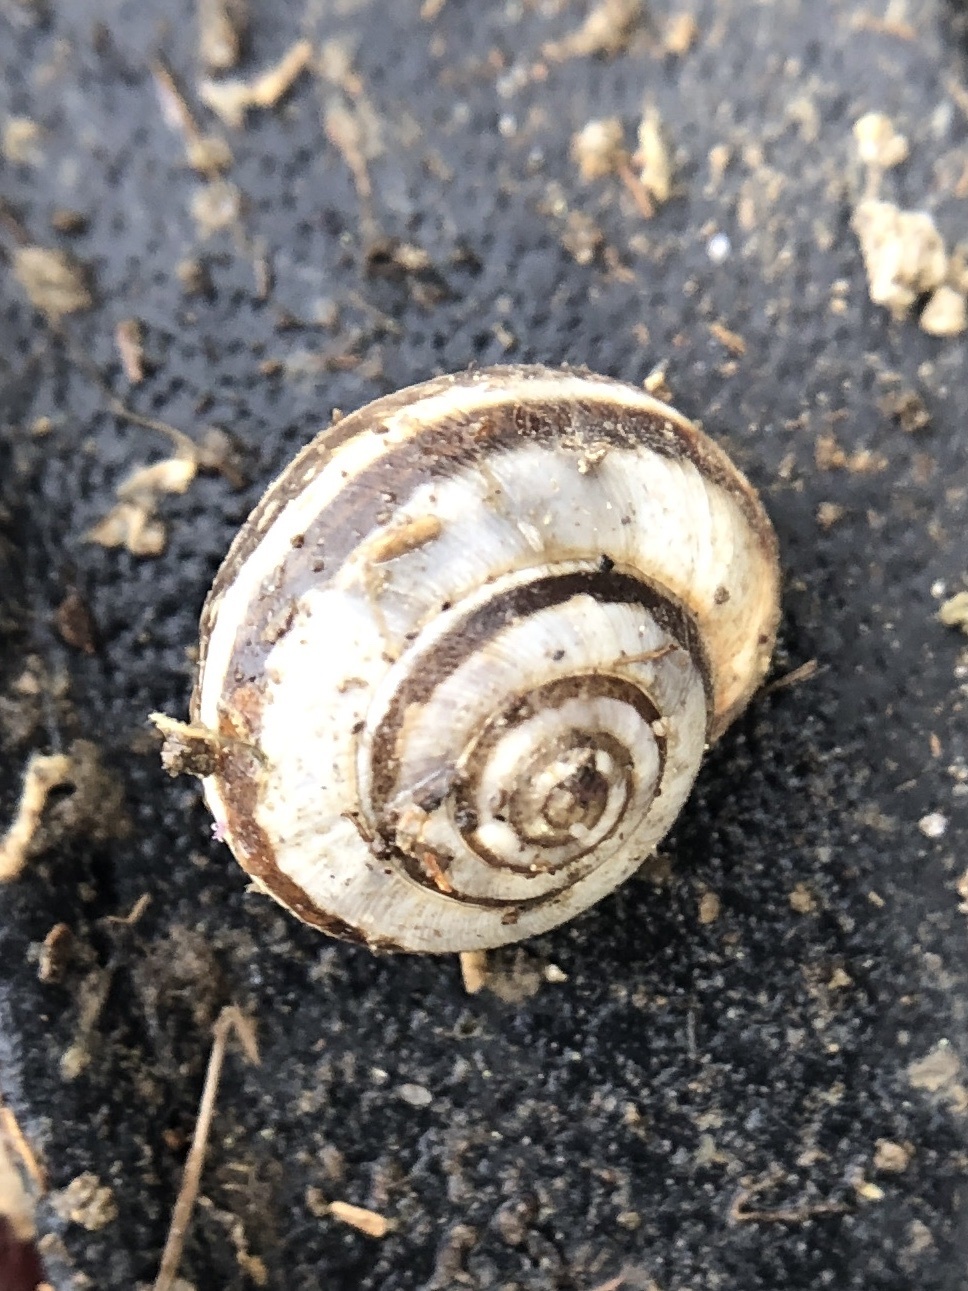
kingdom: Animalia
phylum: Mollusca
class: Gastropoda
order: Stylommatophora
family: Geomitridae
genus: Cernuella
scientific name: Cernuella virgata
